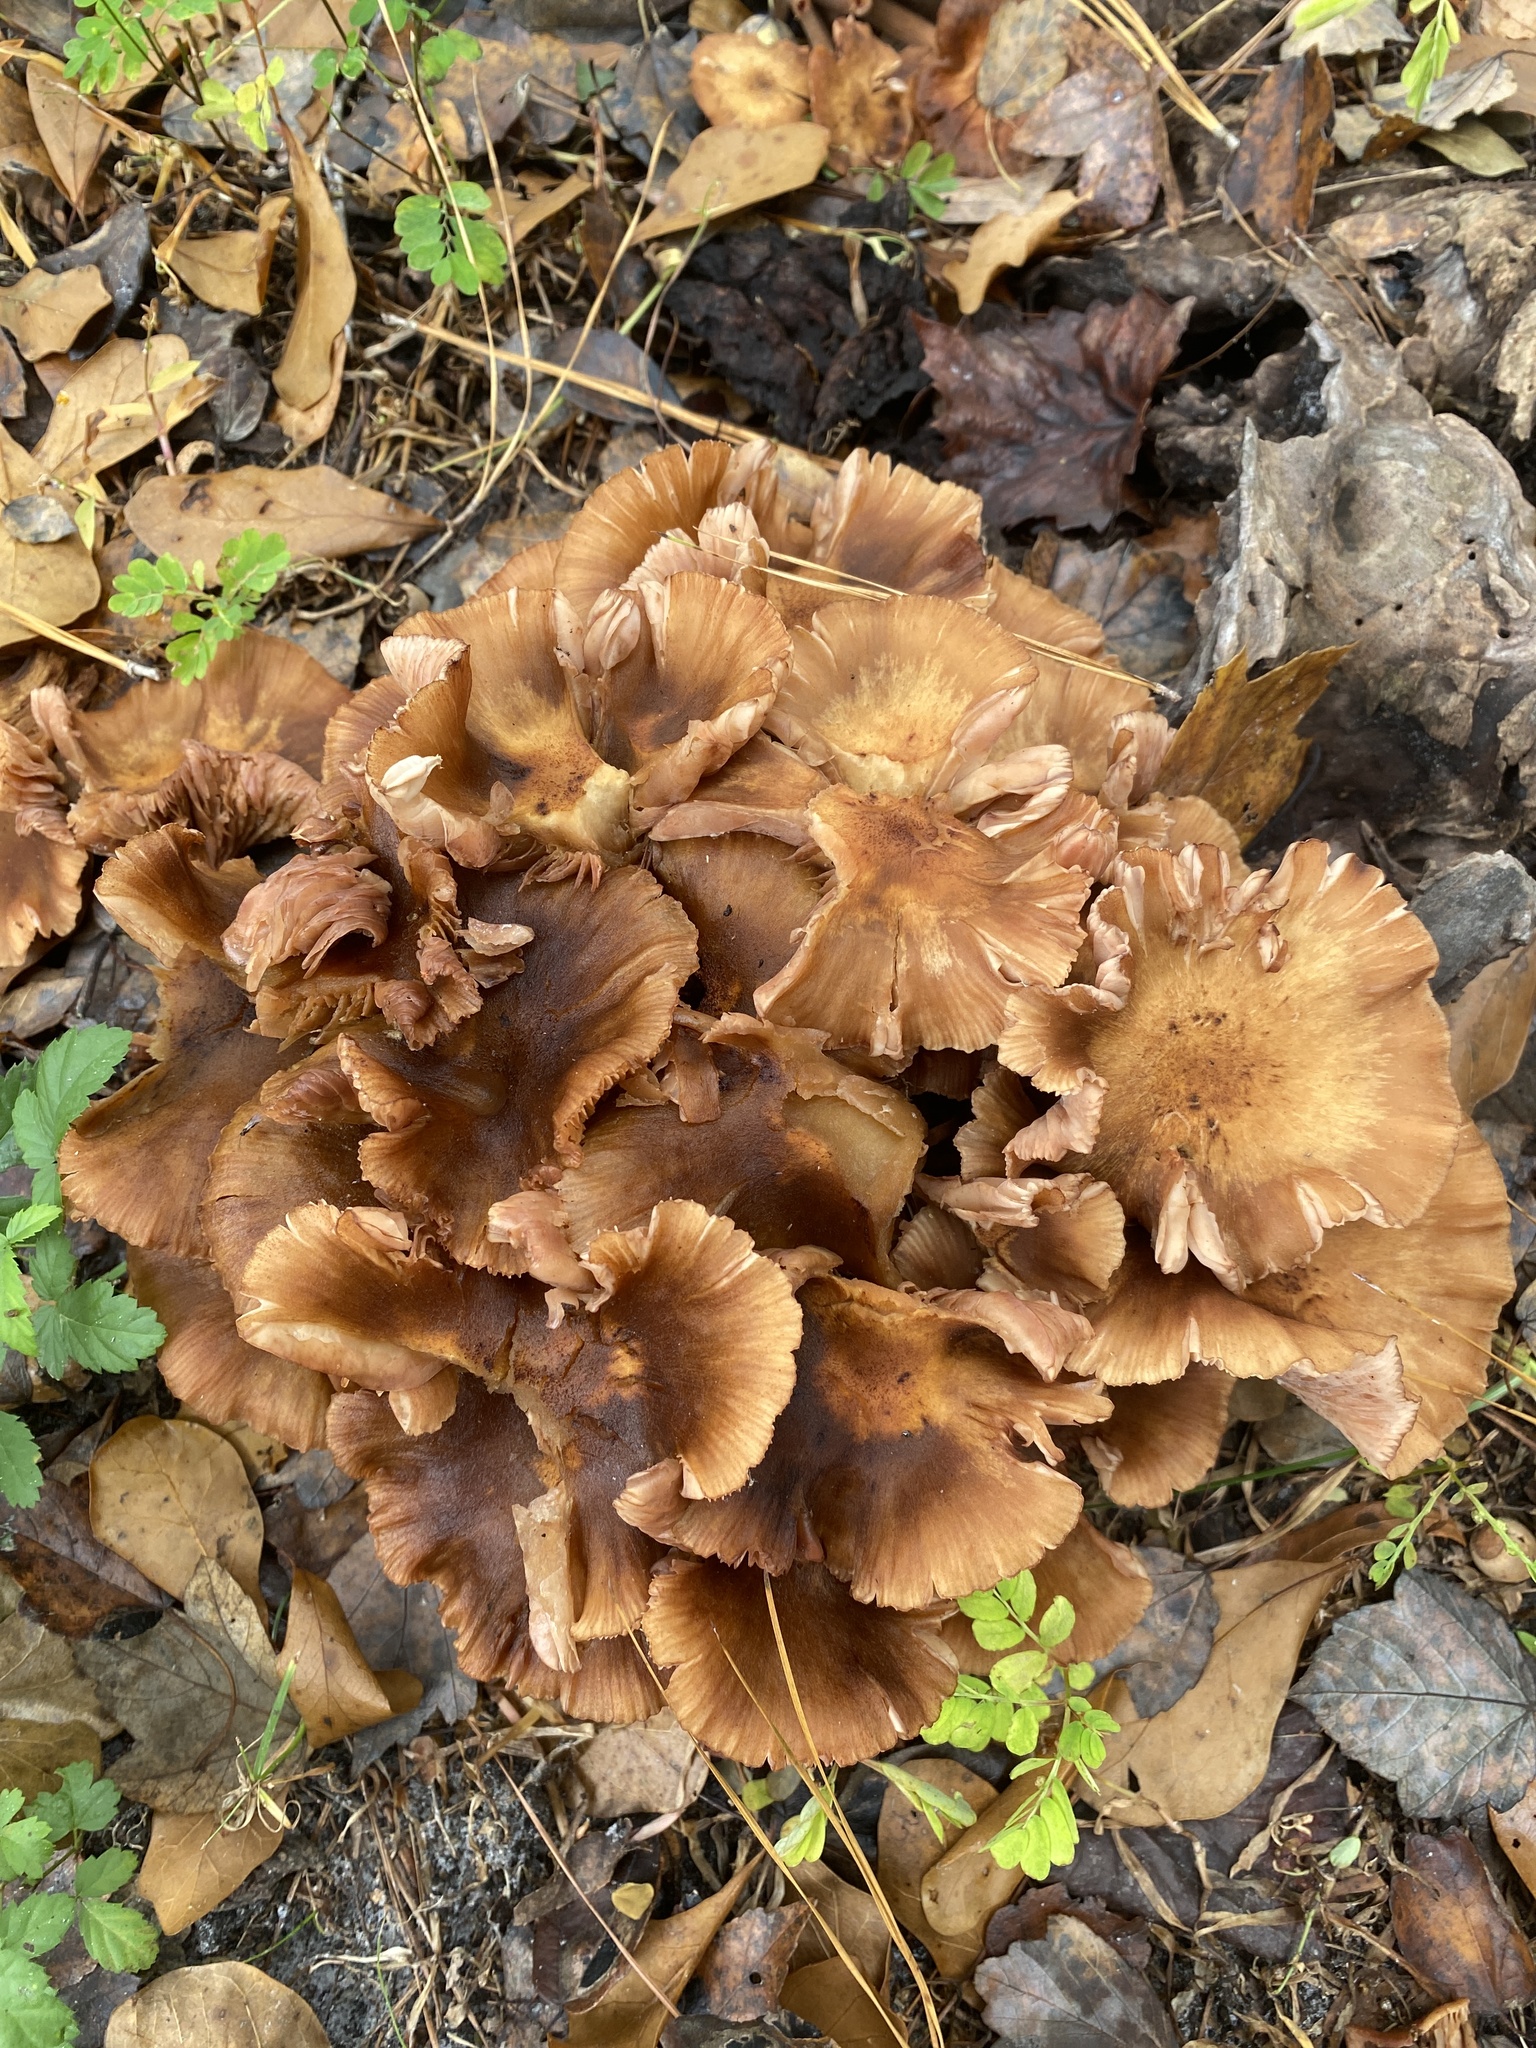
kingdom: Fungi
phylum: Basidiomycota
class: Agaricomycetes
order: Agaricales
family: Physalacriaceae
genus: Desarmillaria
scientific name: Desarmillaria caespitosa
